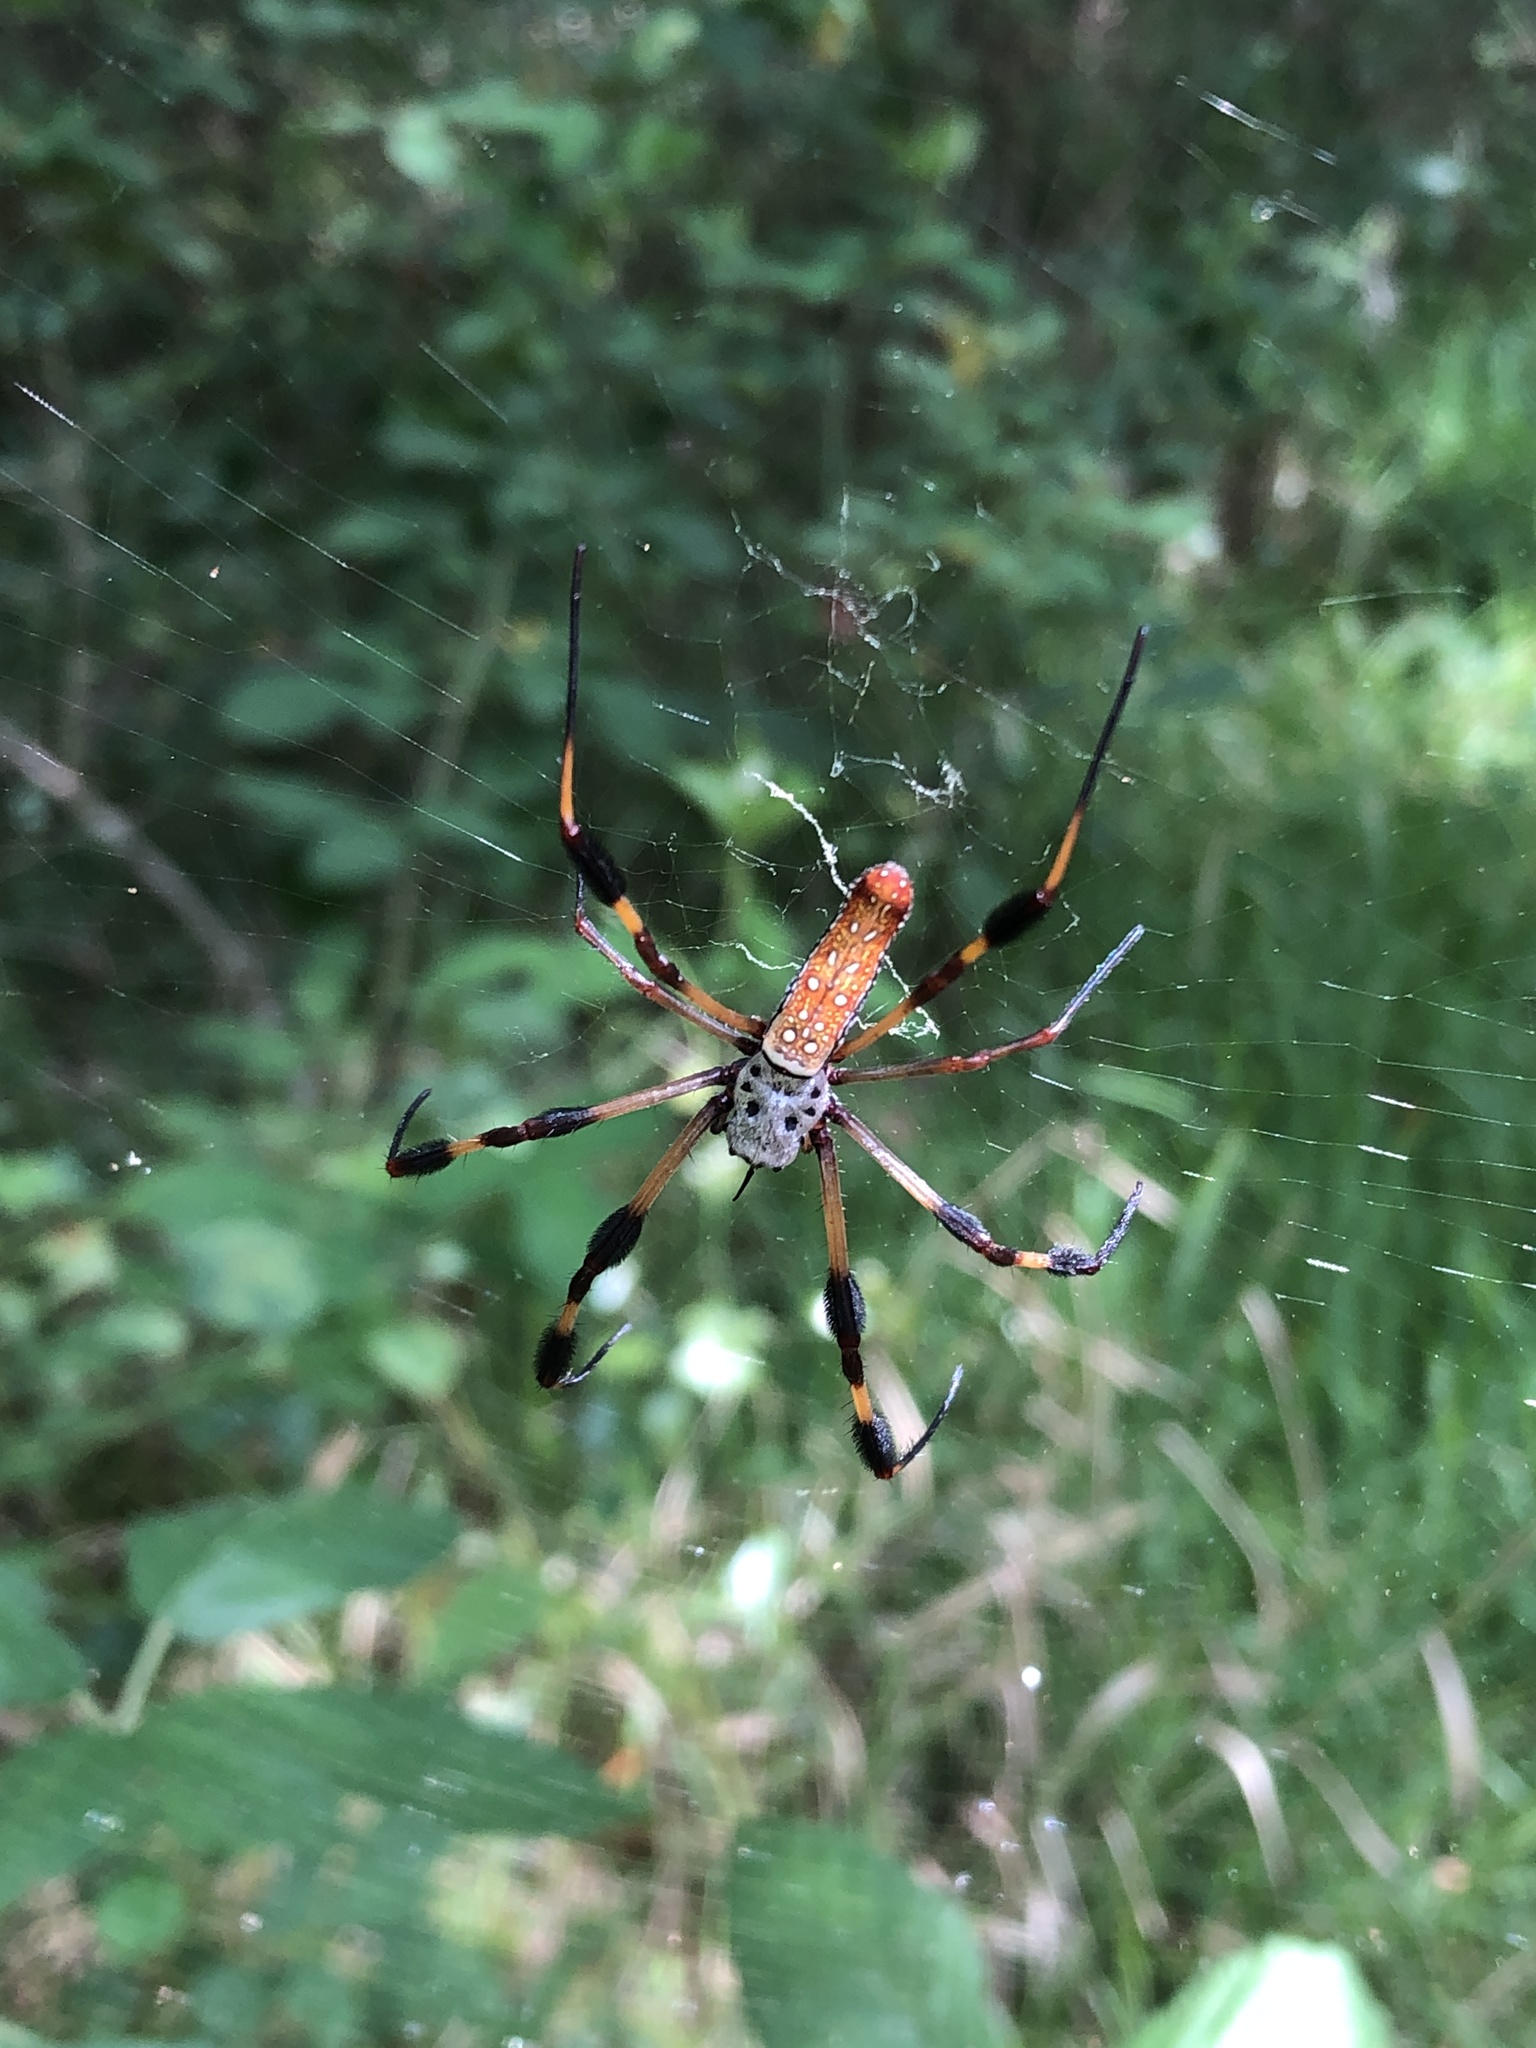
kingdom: Animalia
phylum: Arthropoda
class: Arachnida
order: Araneae
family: Araneidae
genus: Trichonephila
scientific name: Trichonephila clavipes
